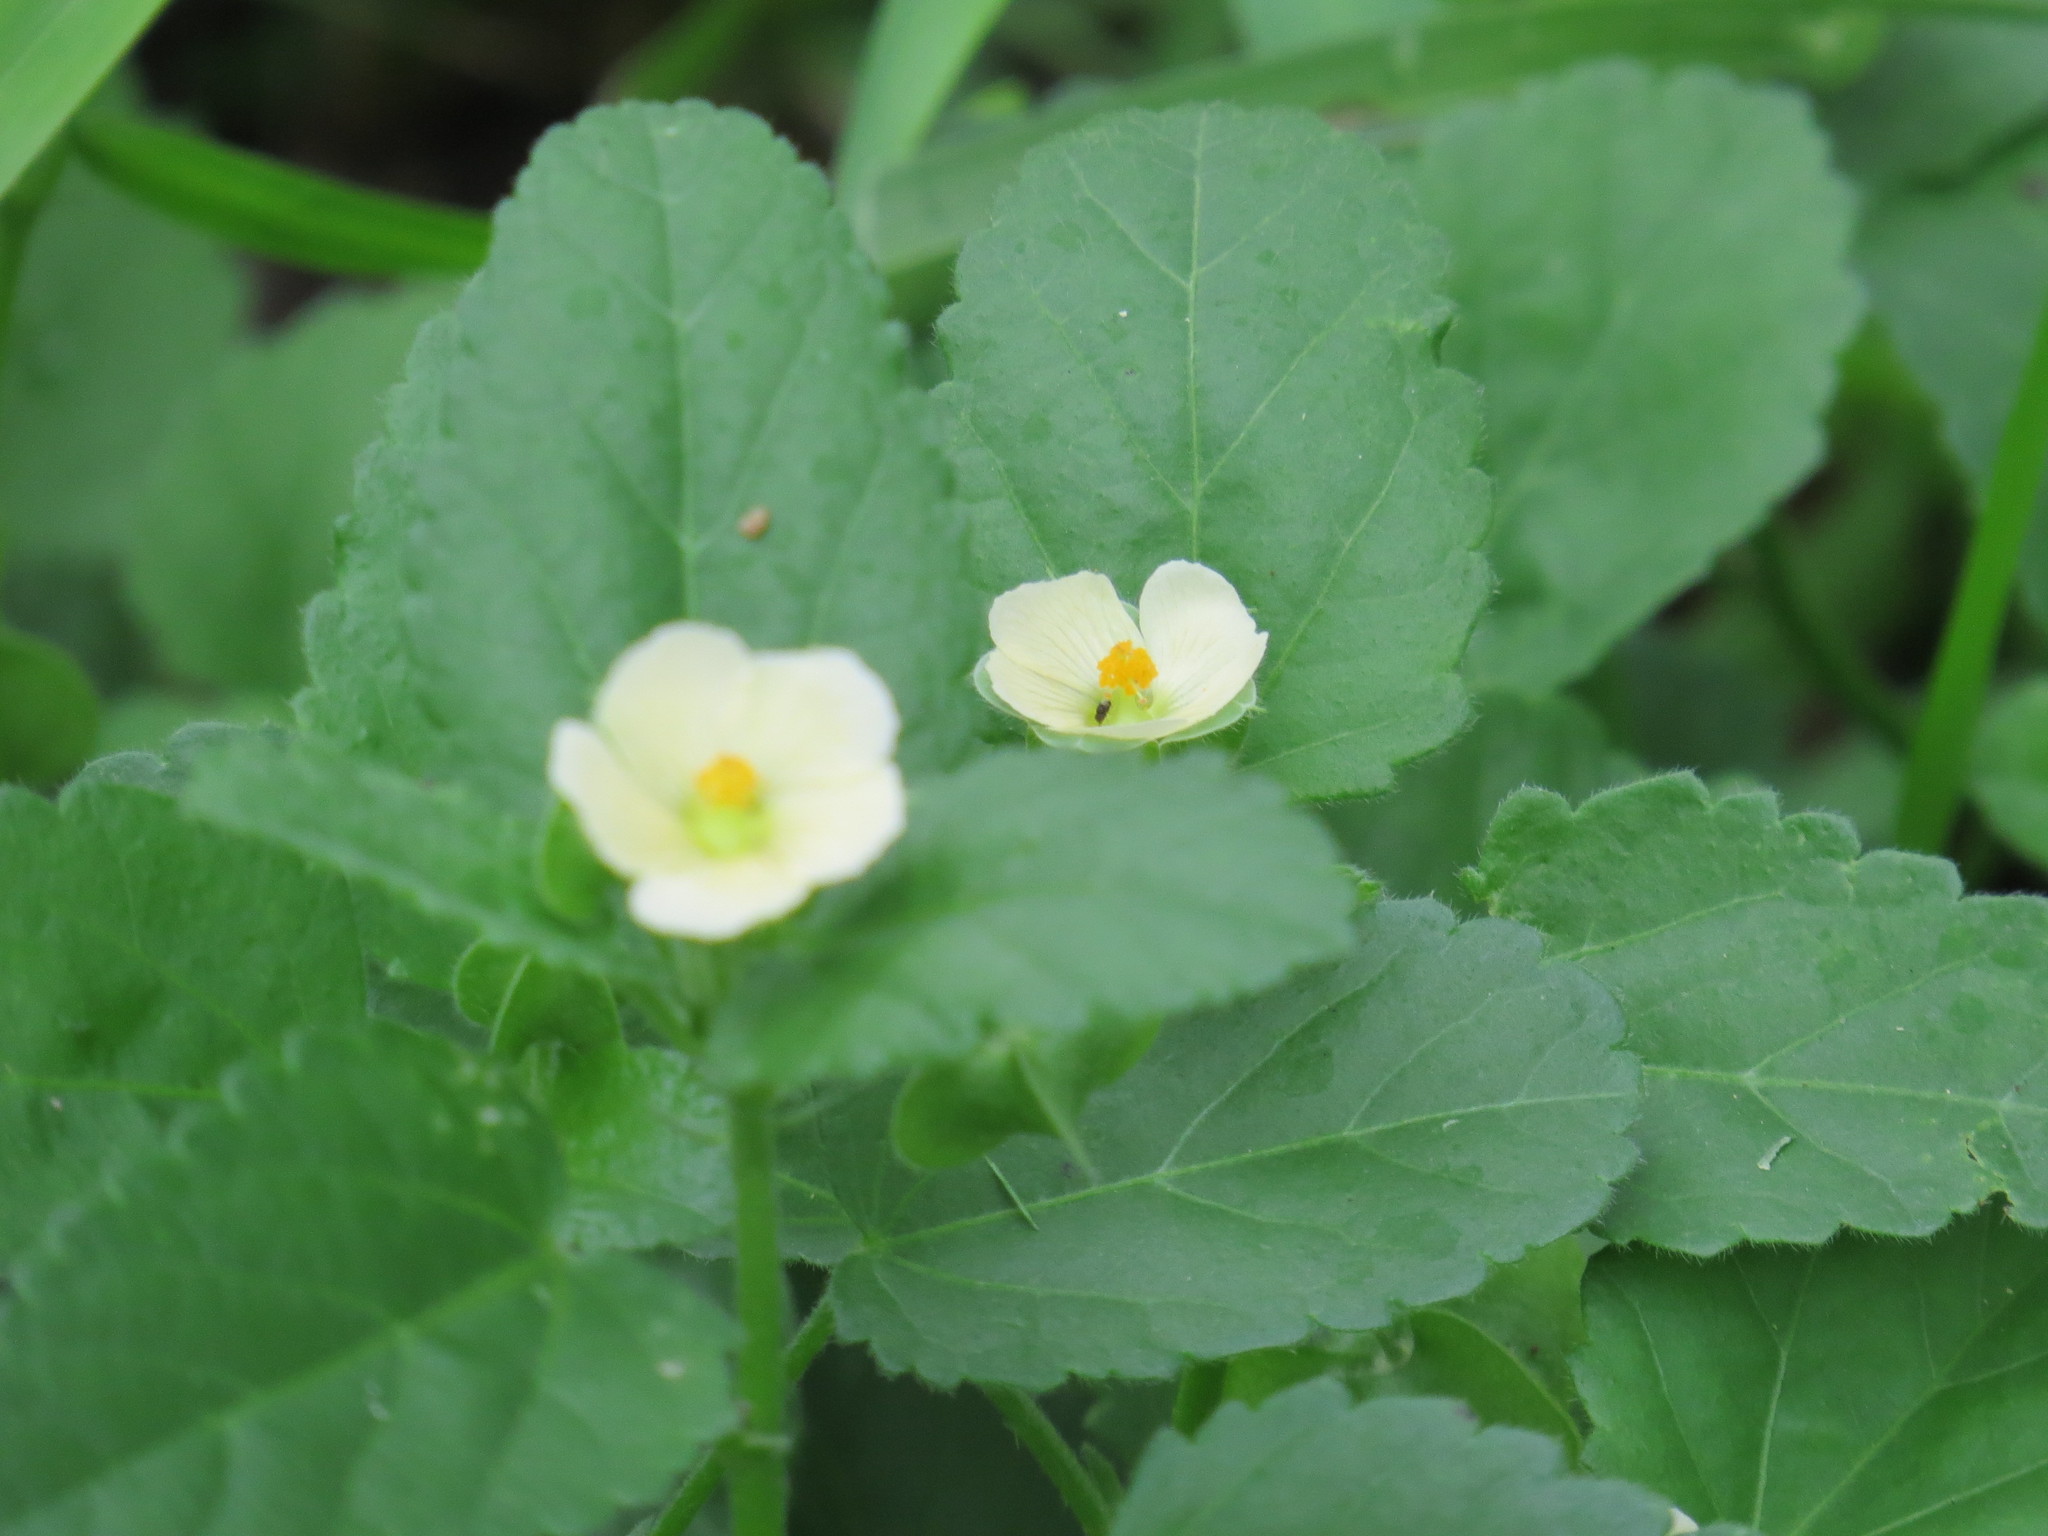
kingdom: Plantae
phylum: Tracheophyta
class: Magnoliopsida
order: Malvales
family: Malvaceae
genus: Rhynchosida
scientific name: Rhynchosida physocalyx
